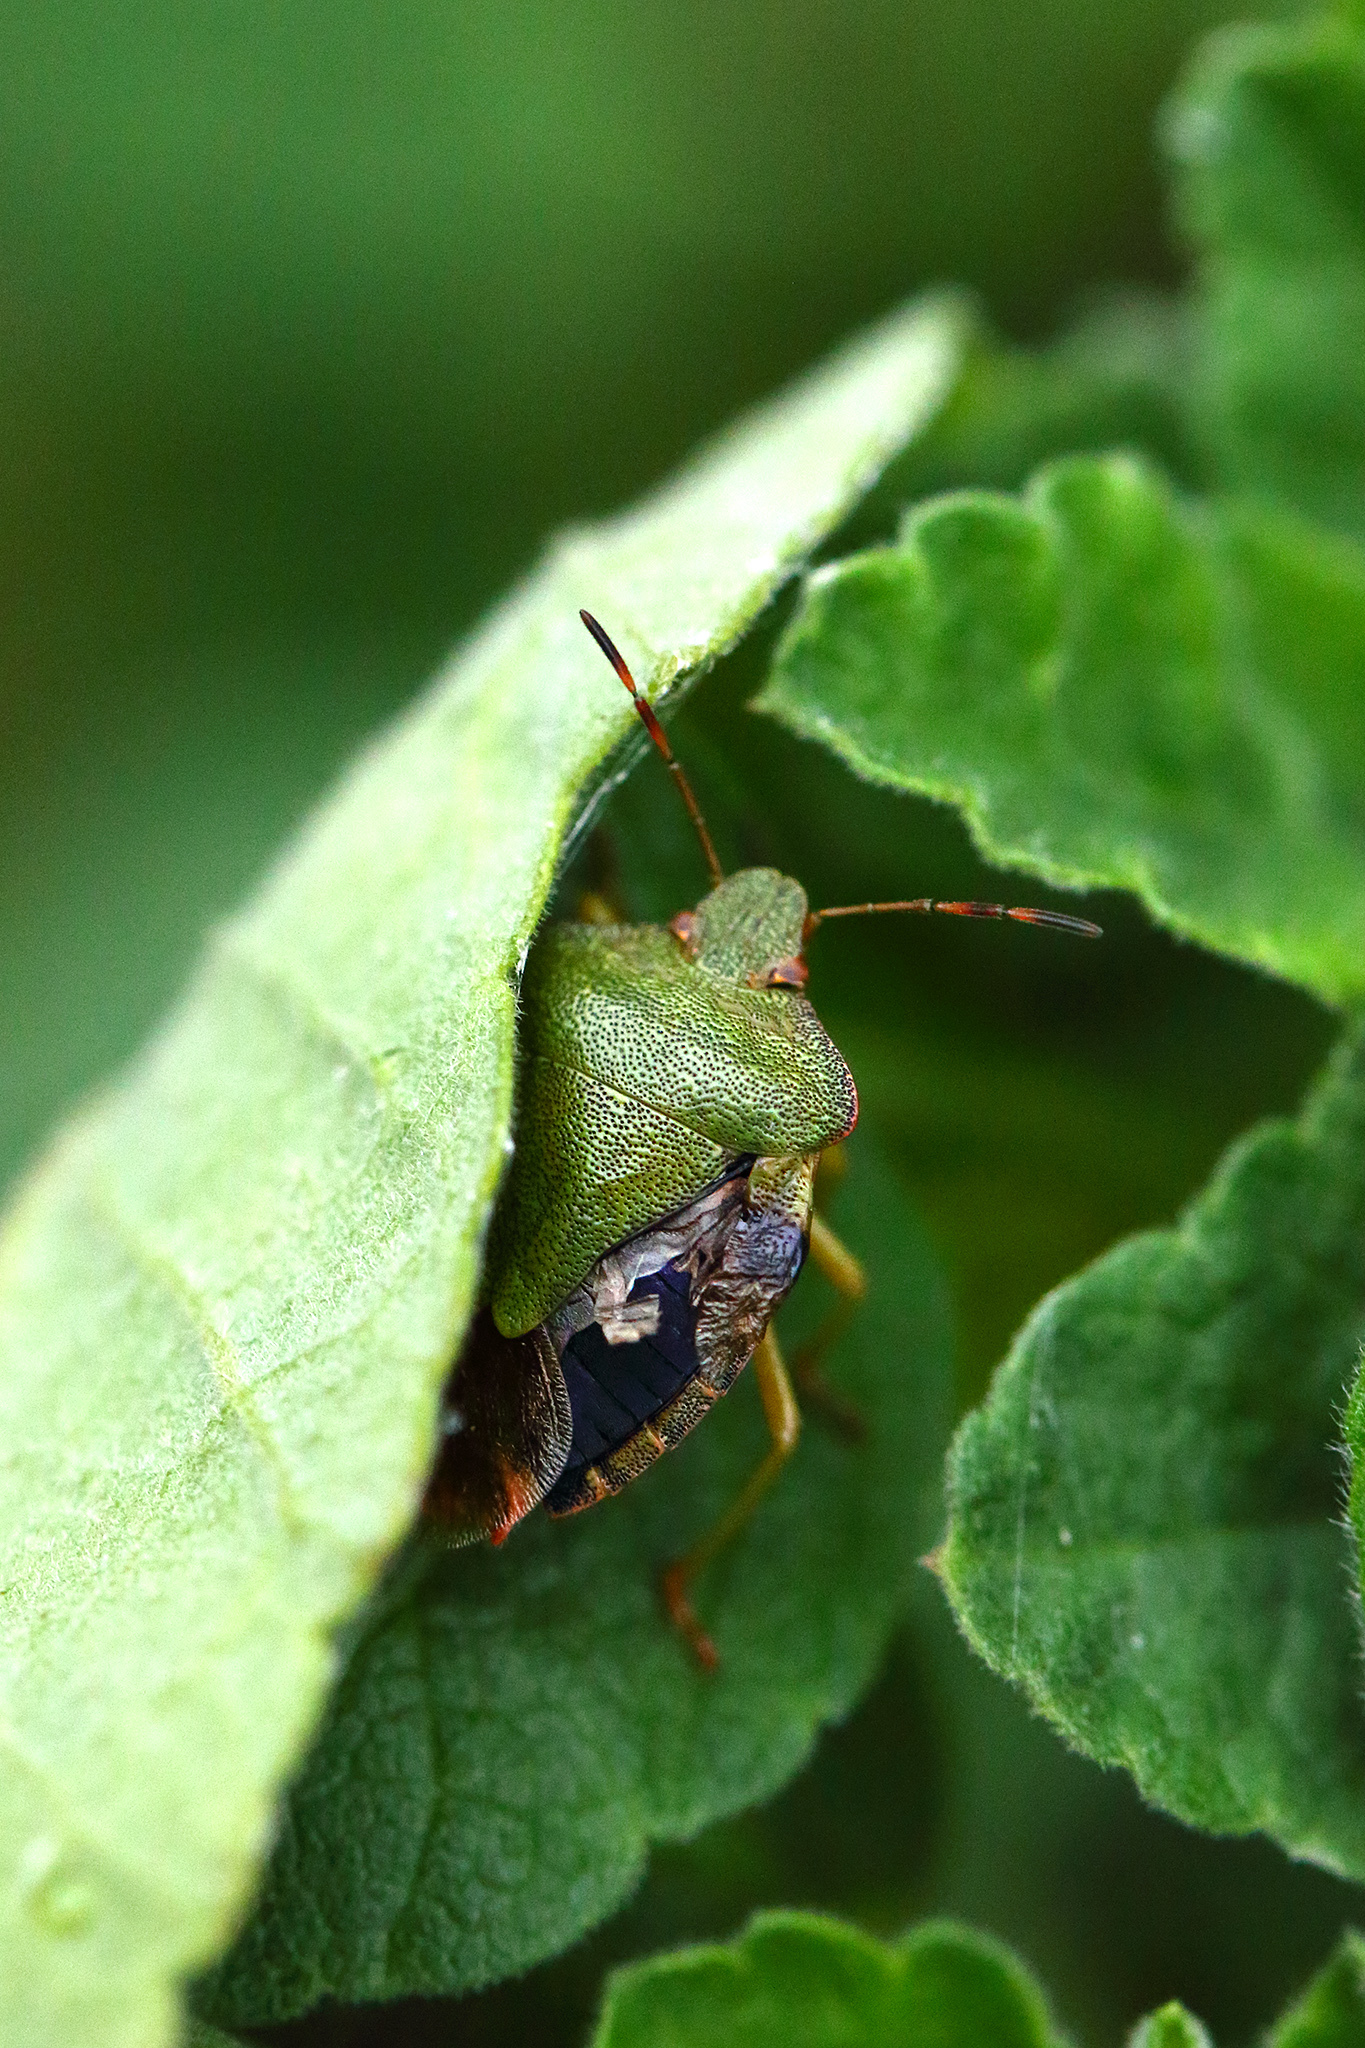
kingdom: Animalia
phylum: Arthropoda
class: Insecta
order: Hemiptera
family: Pentatomidae
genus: Palomena
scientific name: Palomena prasina
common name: Green shieldbug
